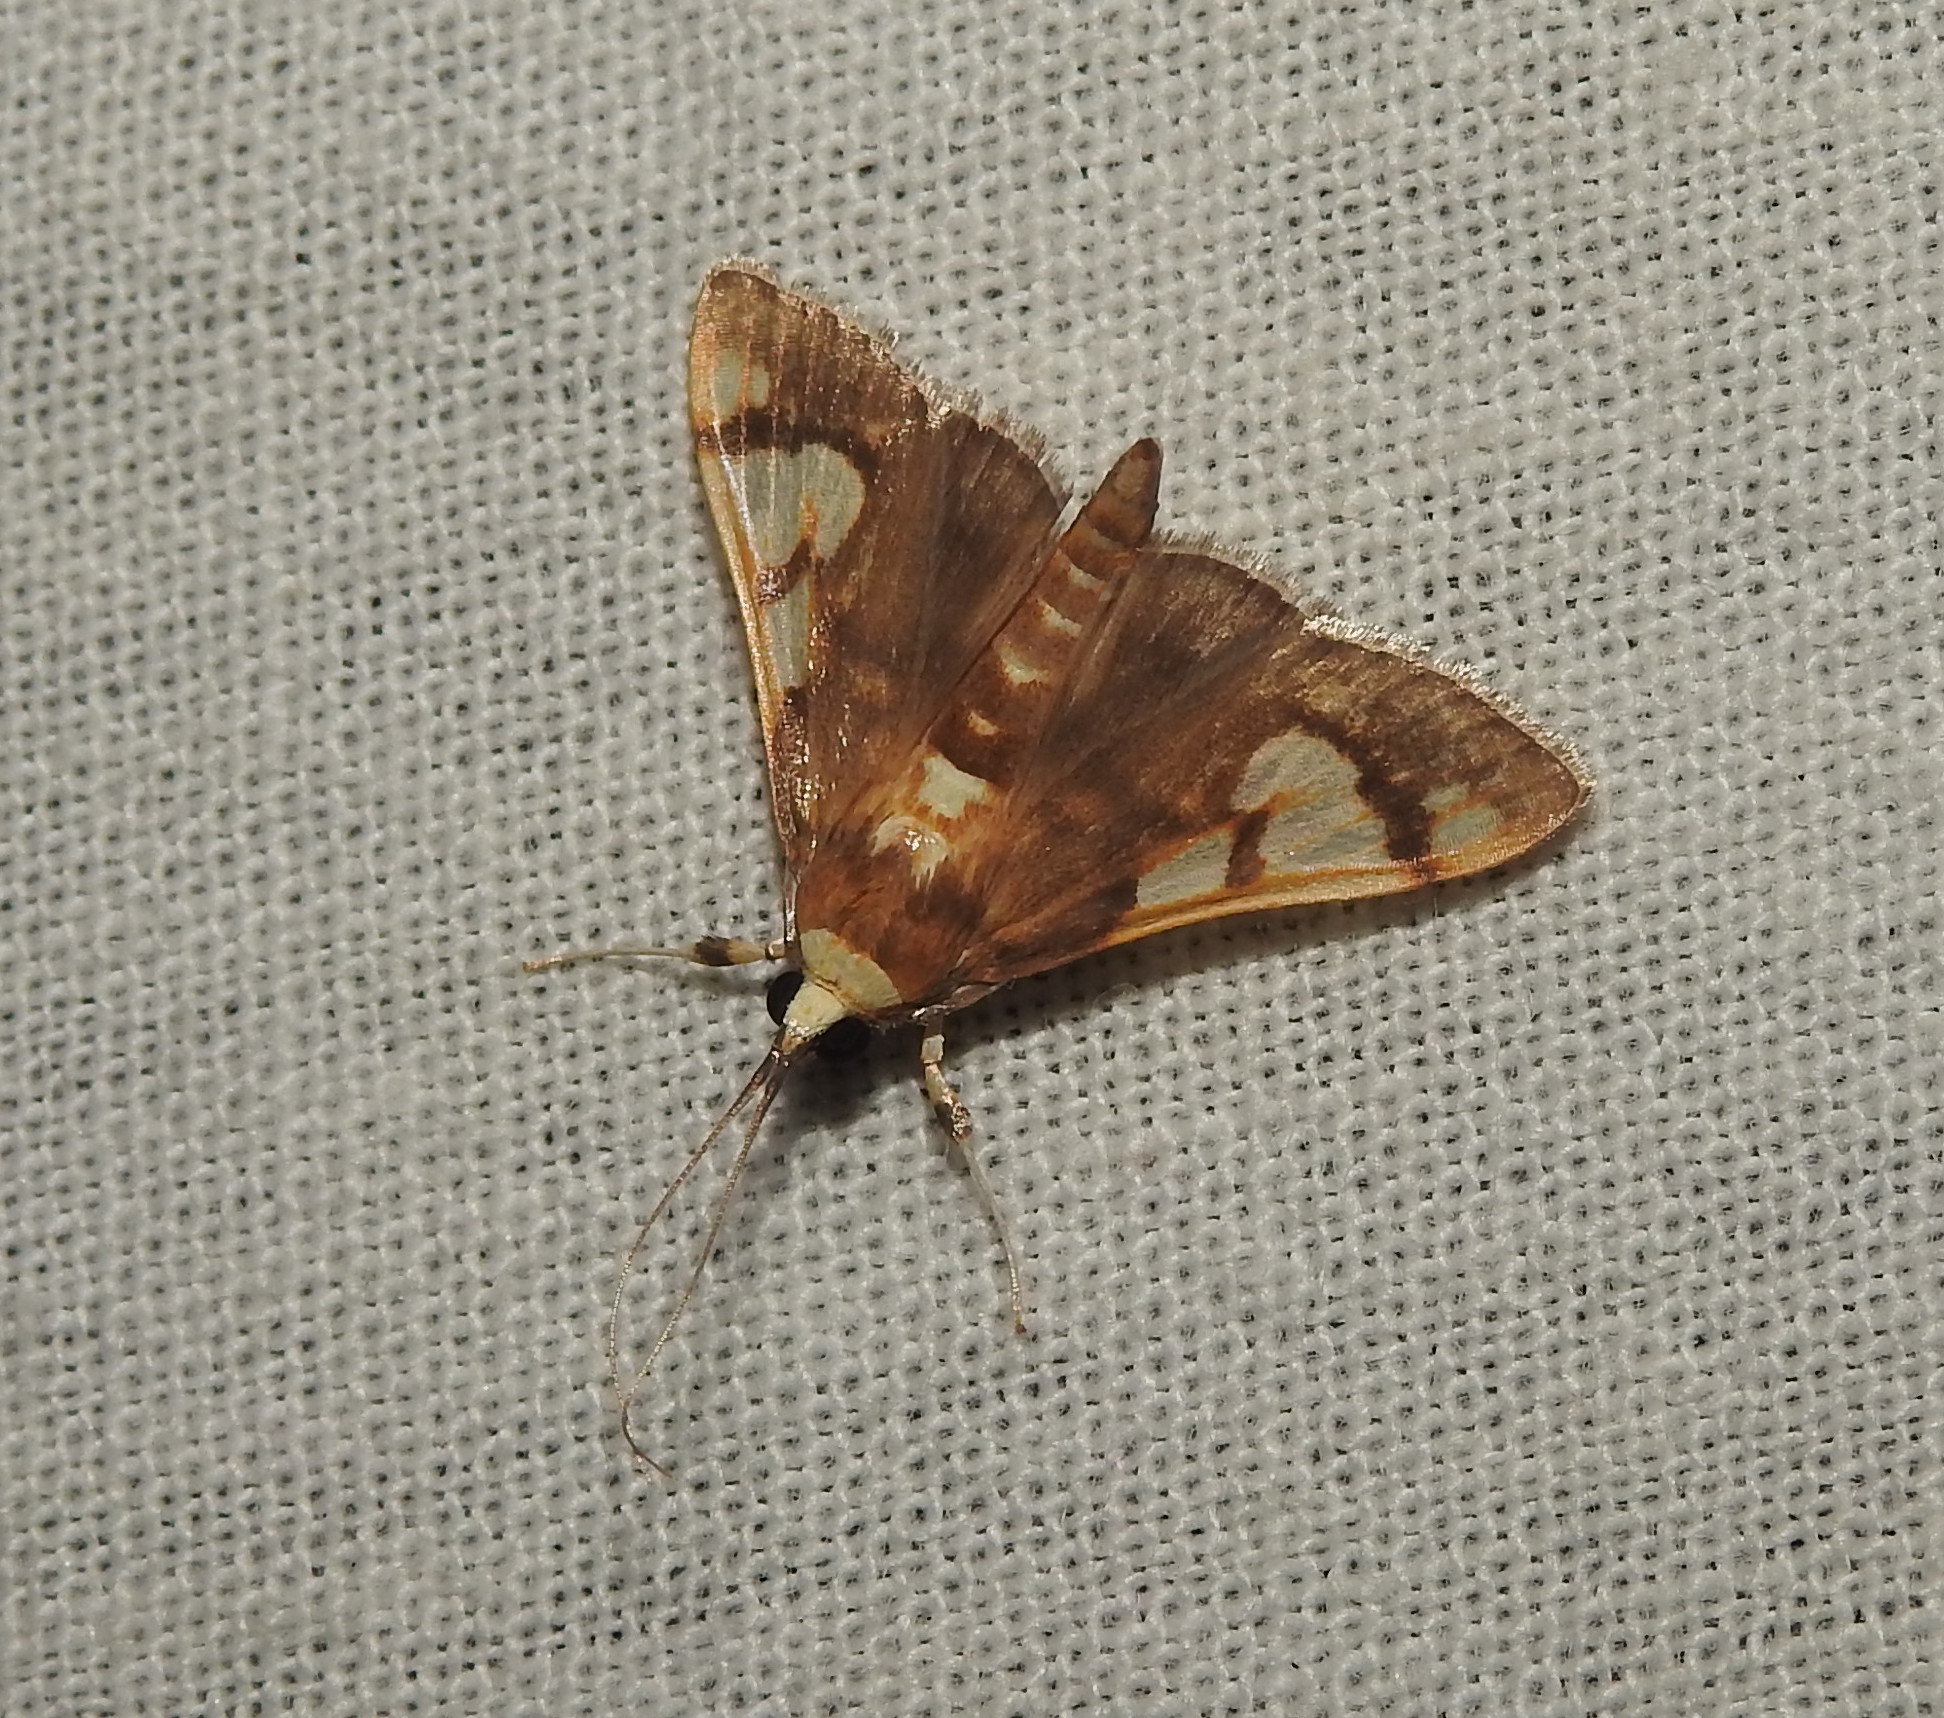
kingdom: Animalia
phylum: Arthropoda
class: Insecta
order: Lepidoptera
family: Crambidae
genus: Ulopeza
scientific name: Ulopeza idyalis
